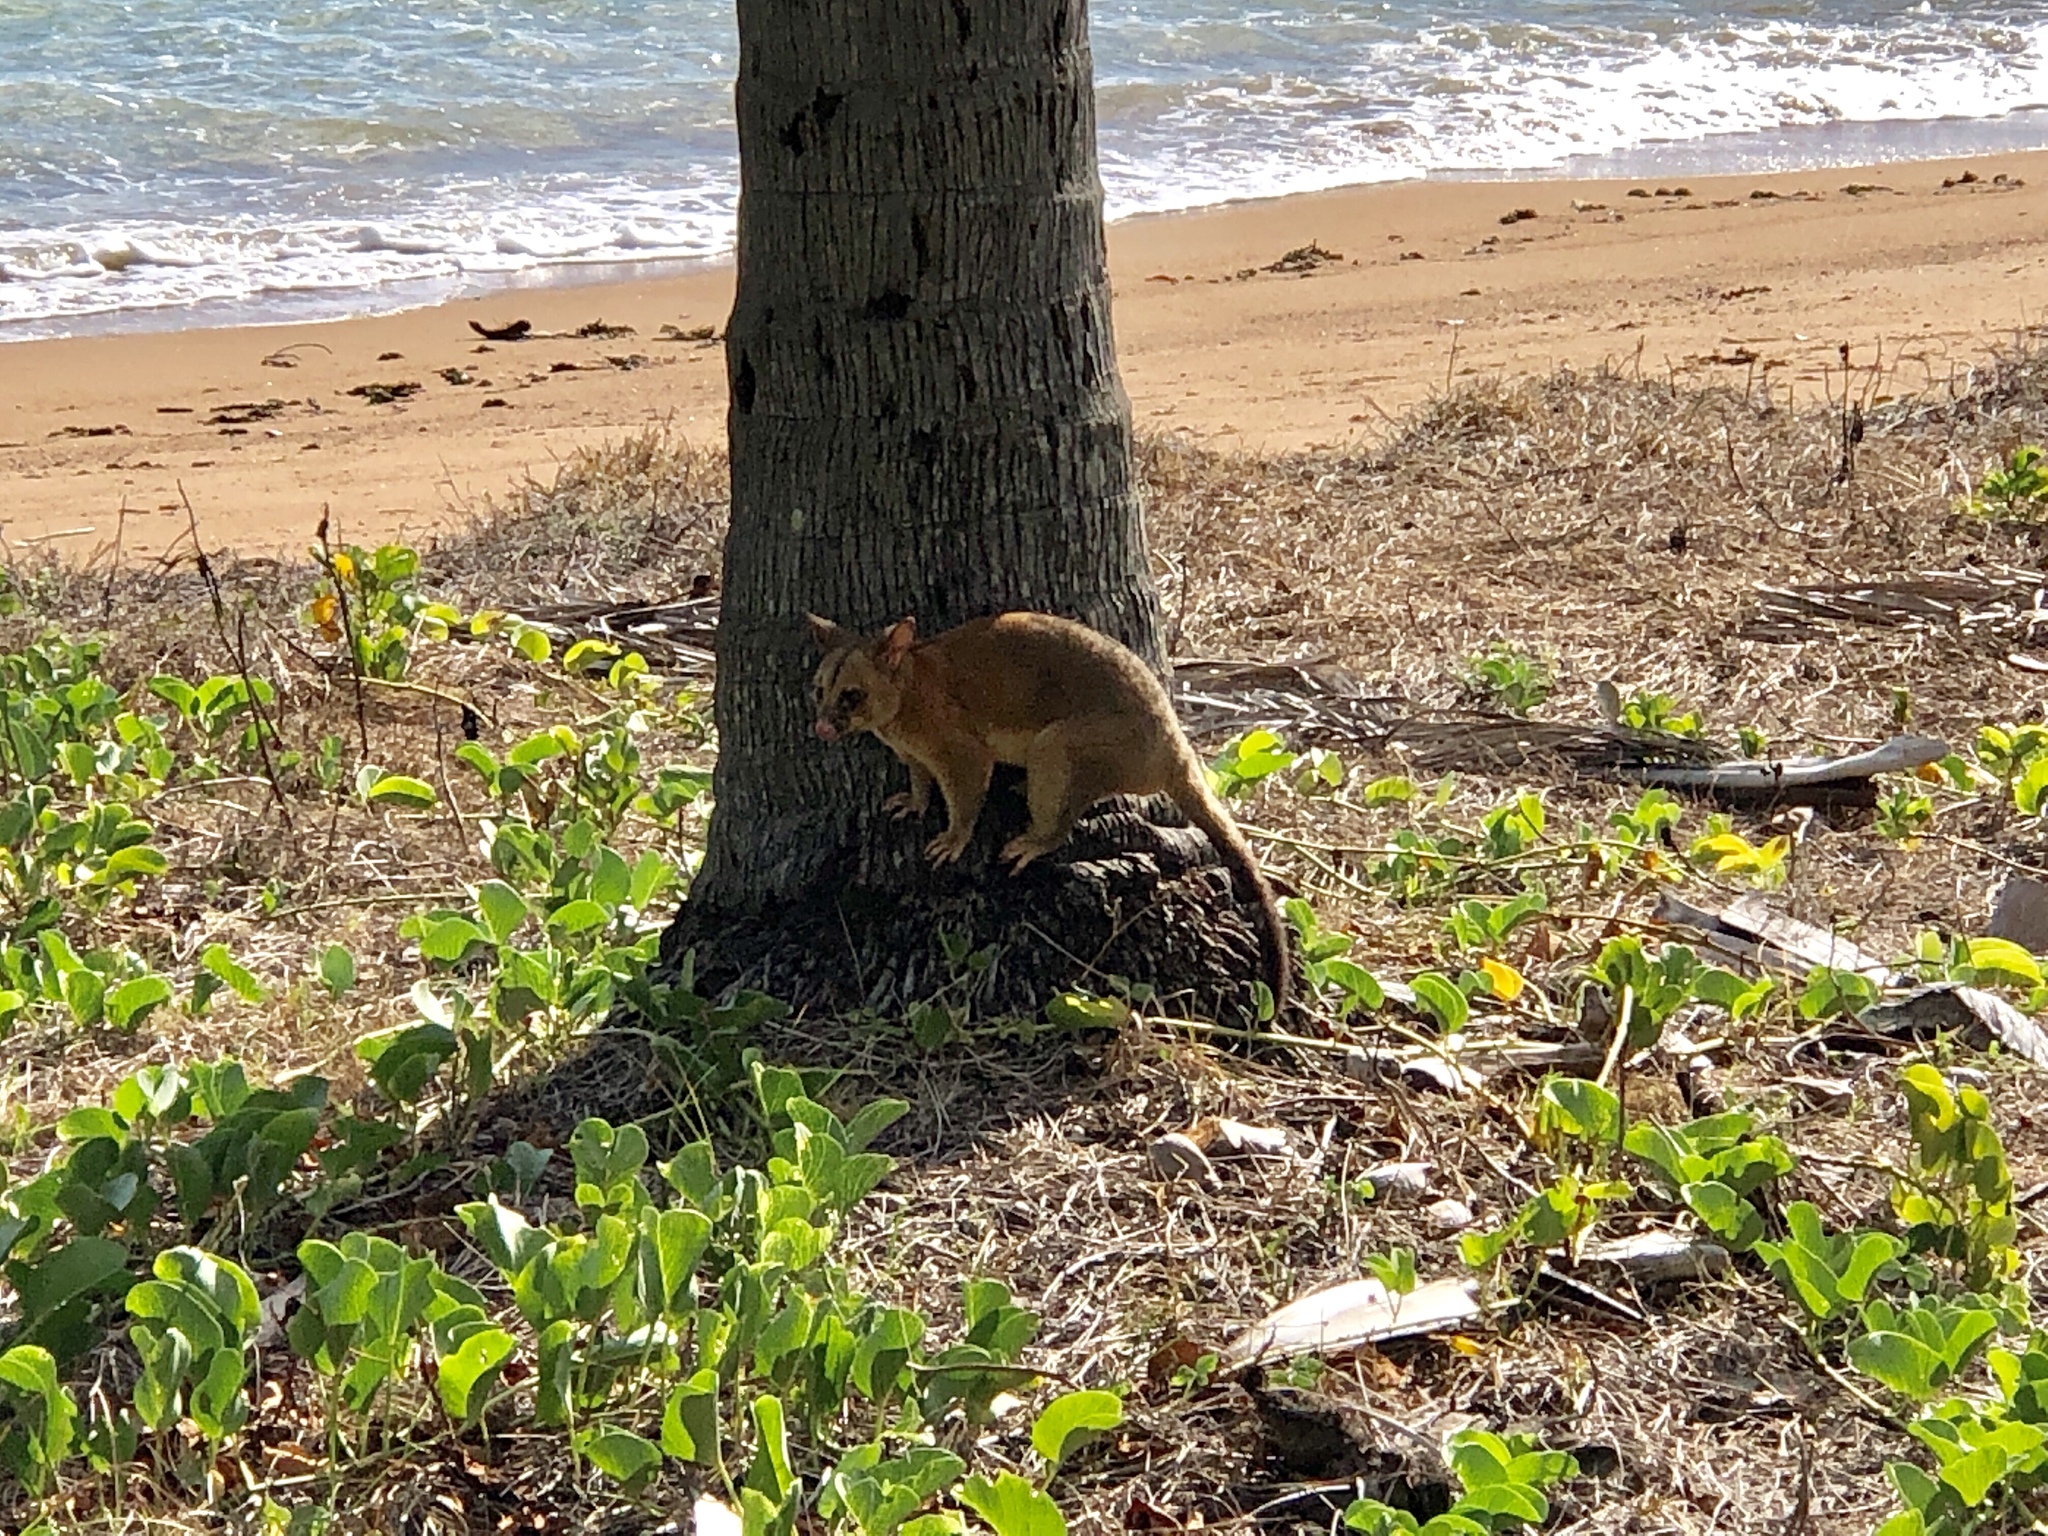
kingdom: Animalia
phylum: Chordata
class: Mammalia
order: Diprotodontia
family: Phalangeridae
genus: Trichosurus
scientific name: Trichosurus vulpecula
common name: Common brushtail
